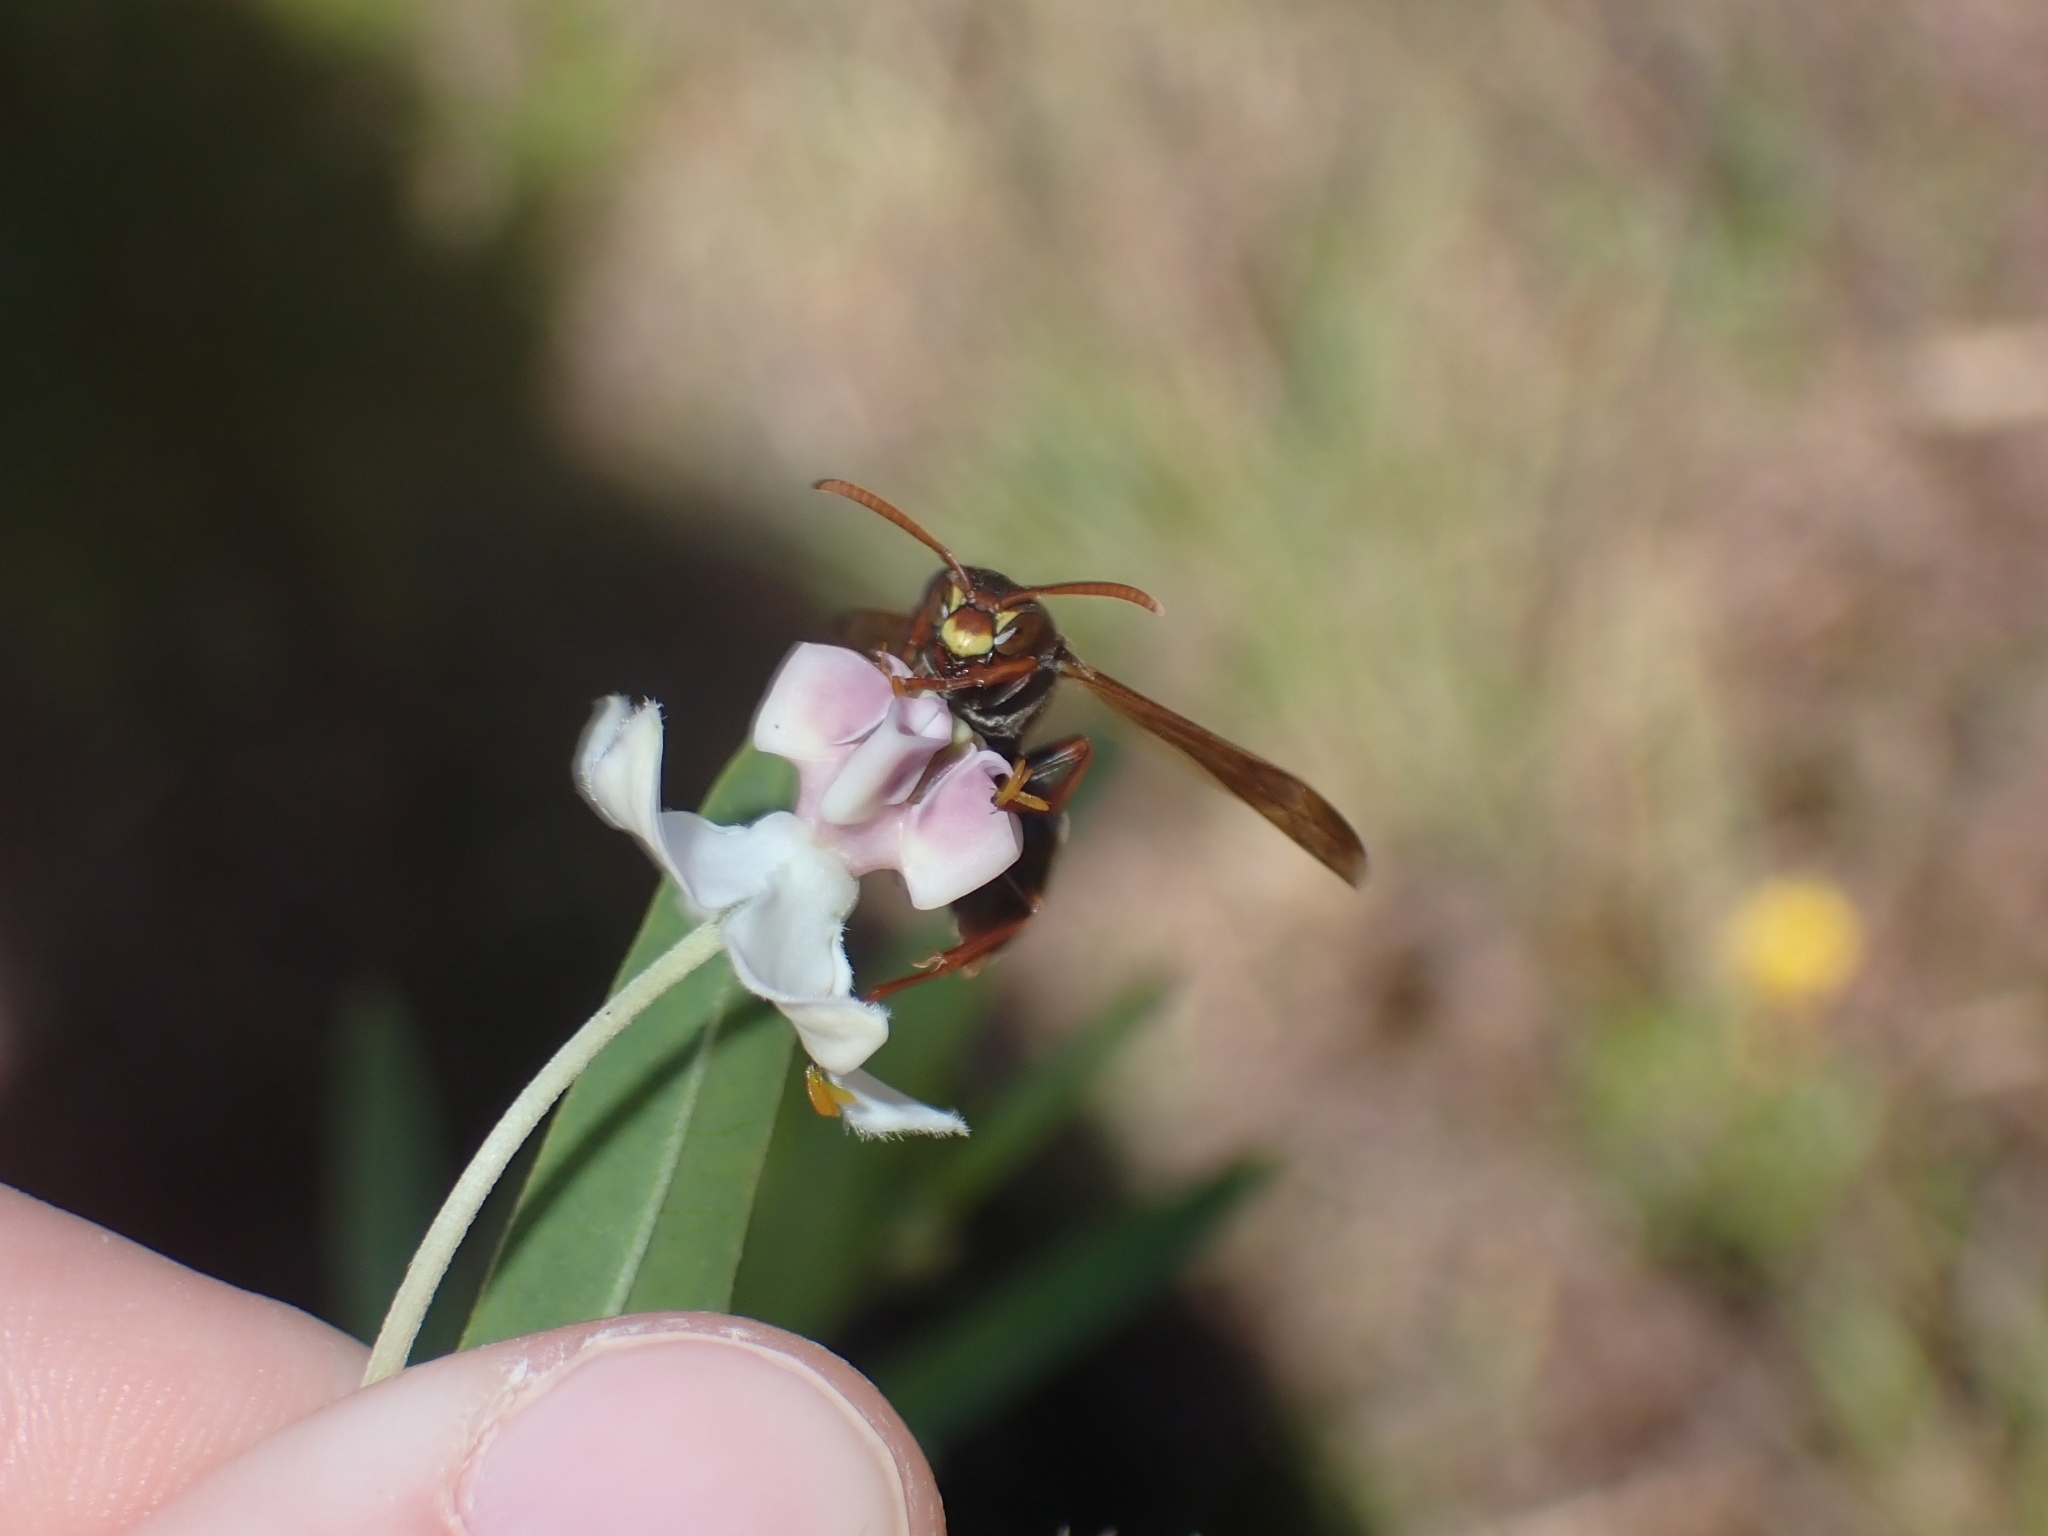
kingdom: Animalia
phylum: Arthropoda
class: Insecta
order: Hymenoptera
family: Eumenidae
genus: Polistes
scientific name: Polistes humilis
